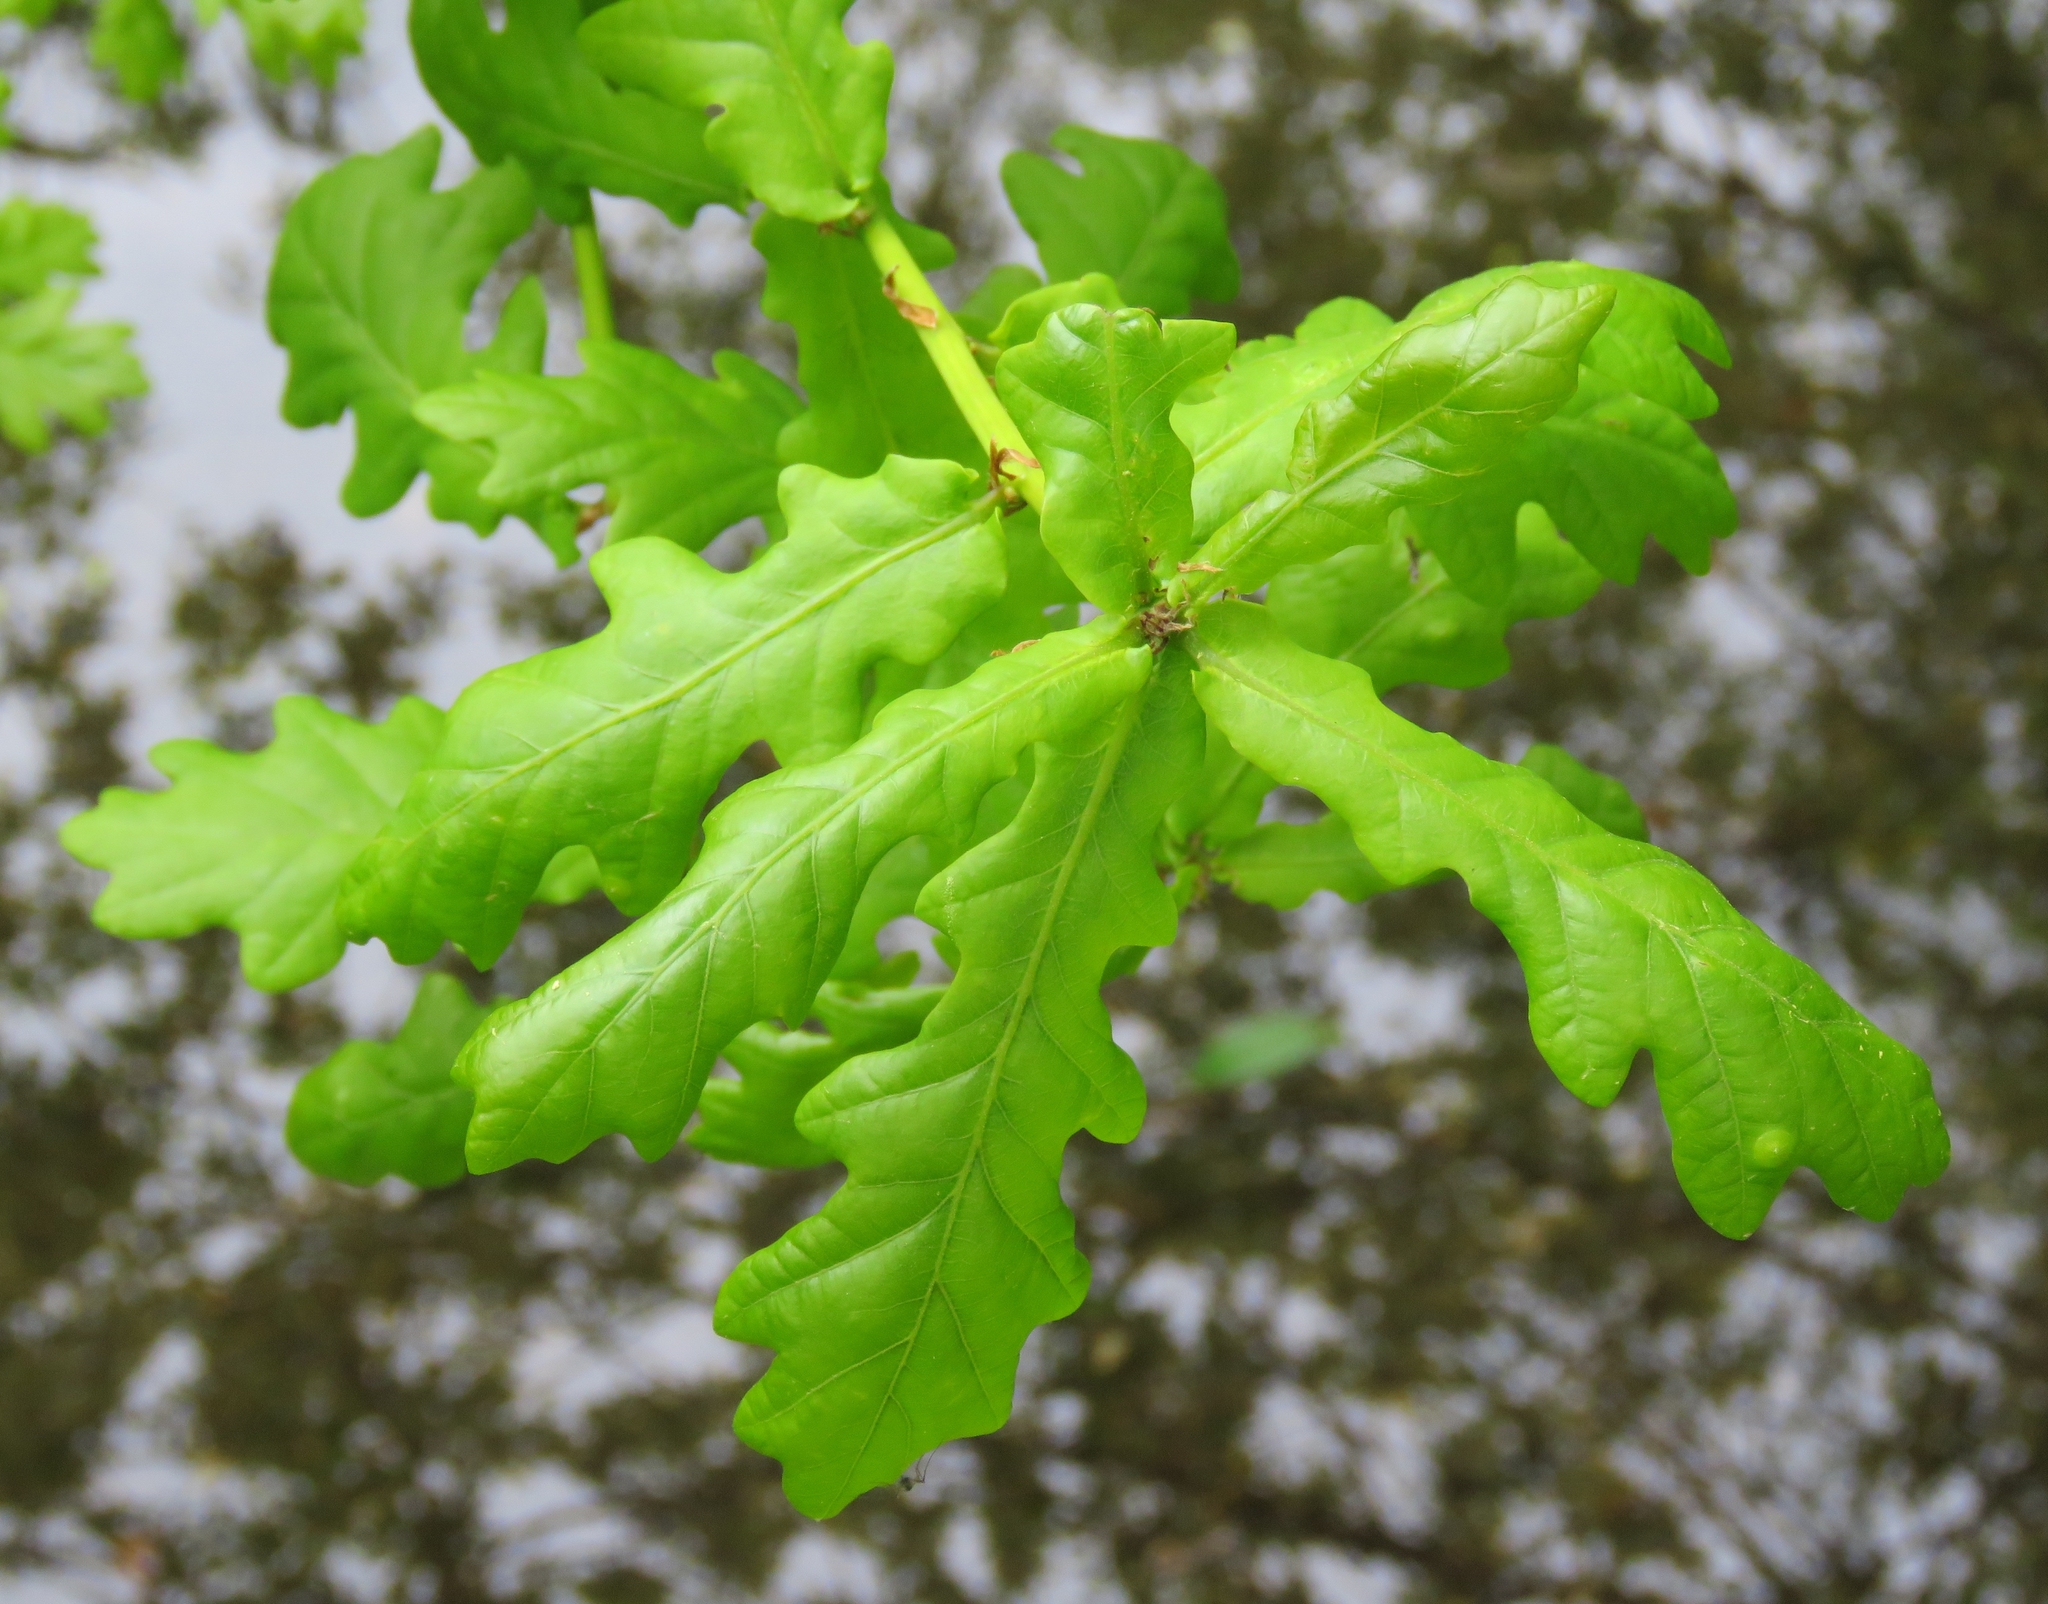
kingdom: Plantae
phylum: Tracheophyta
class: Magnoliopsida
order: Fagales
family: Fagaceae
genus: Quercus
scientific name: Quercus robur
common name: Pedunculate oak
